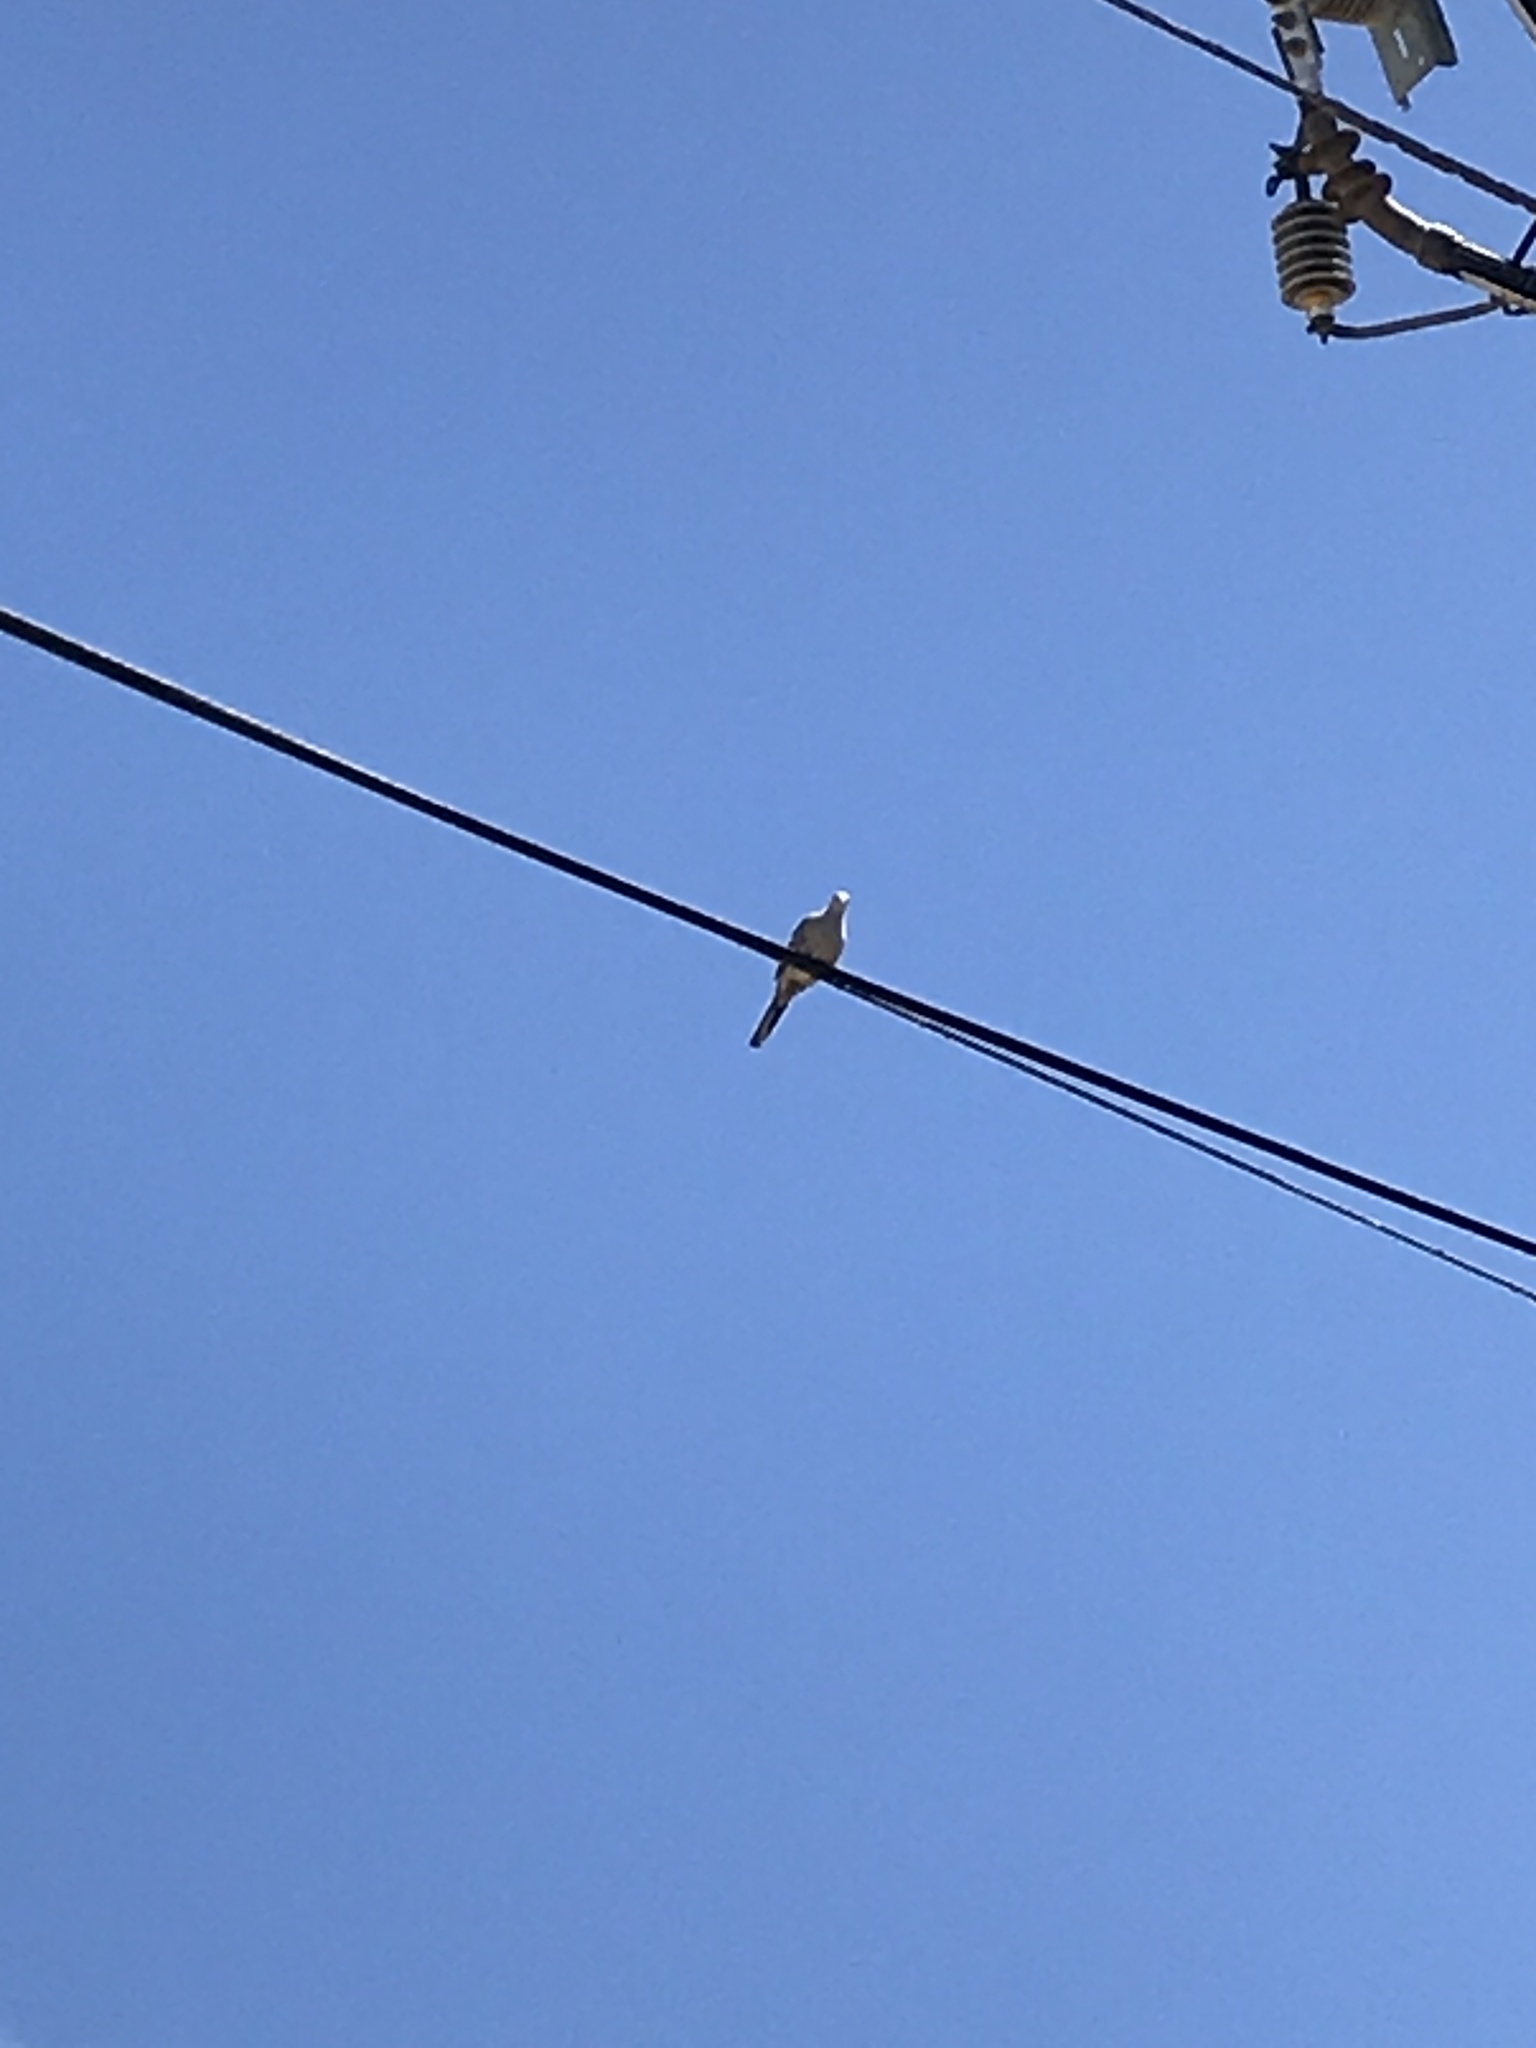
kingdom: Animalia
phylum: Chordata
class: Aves
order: Columbiformes
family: Columbidae
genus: Zenaida
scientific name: Zenaida macroura
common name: Mourning dove
